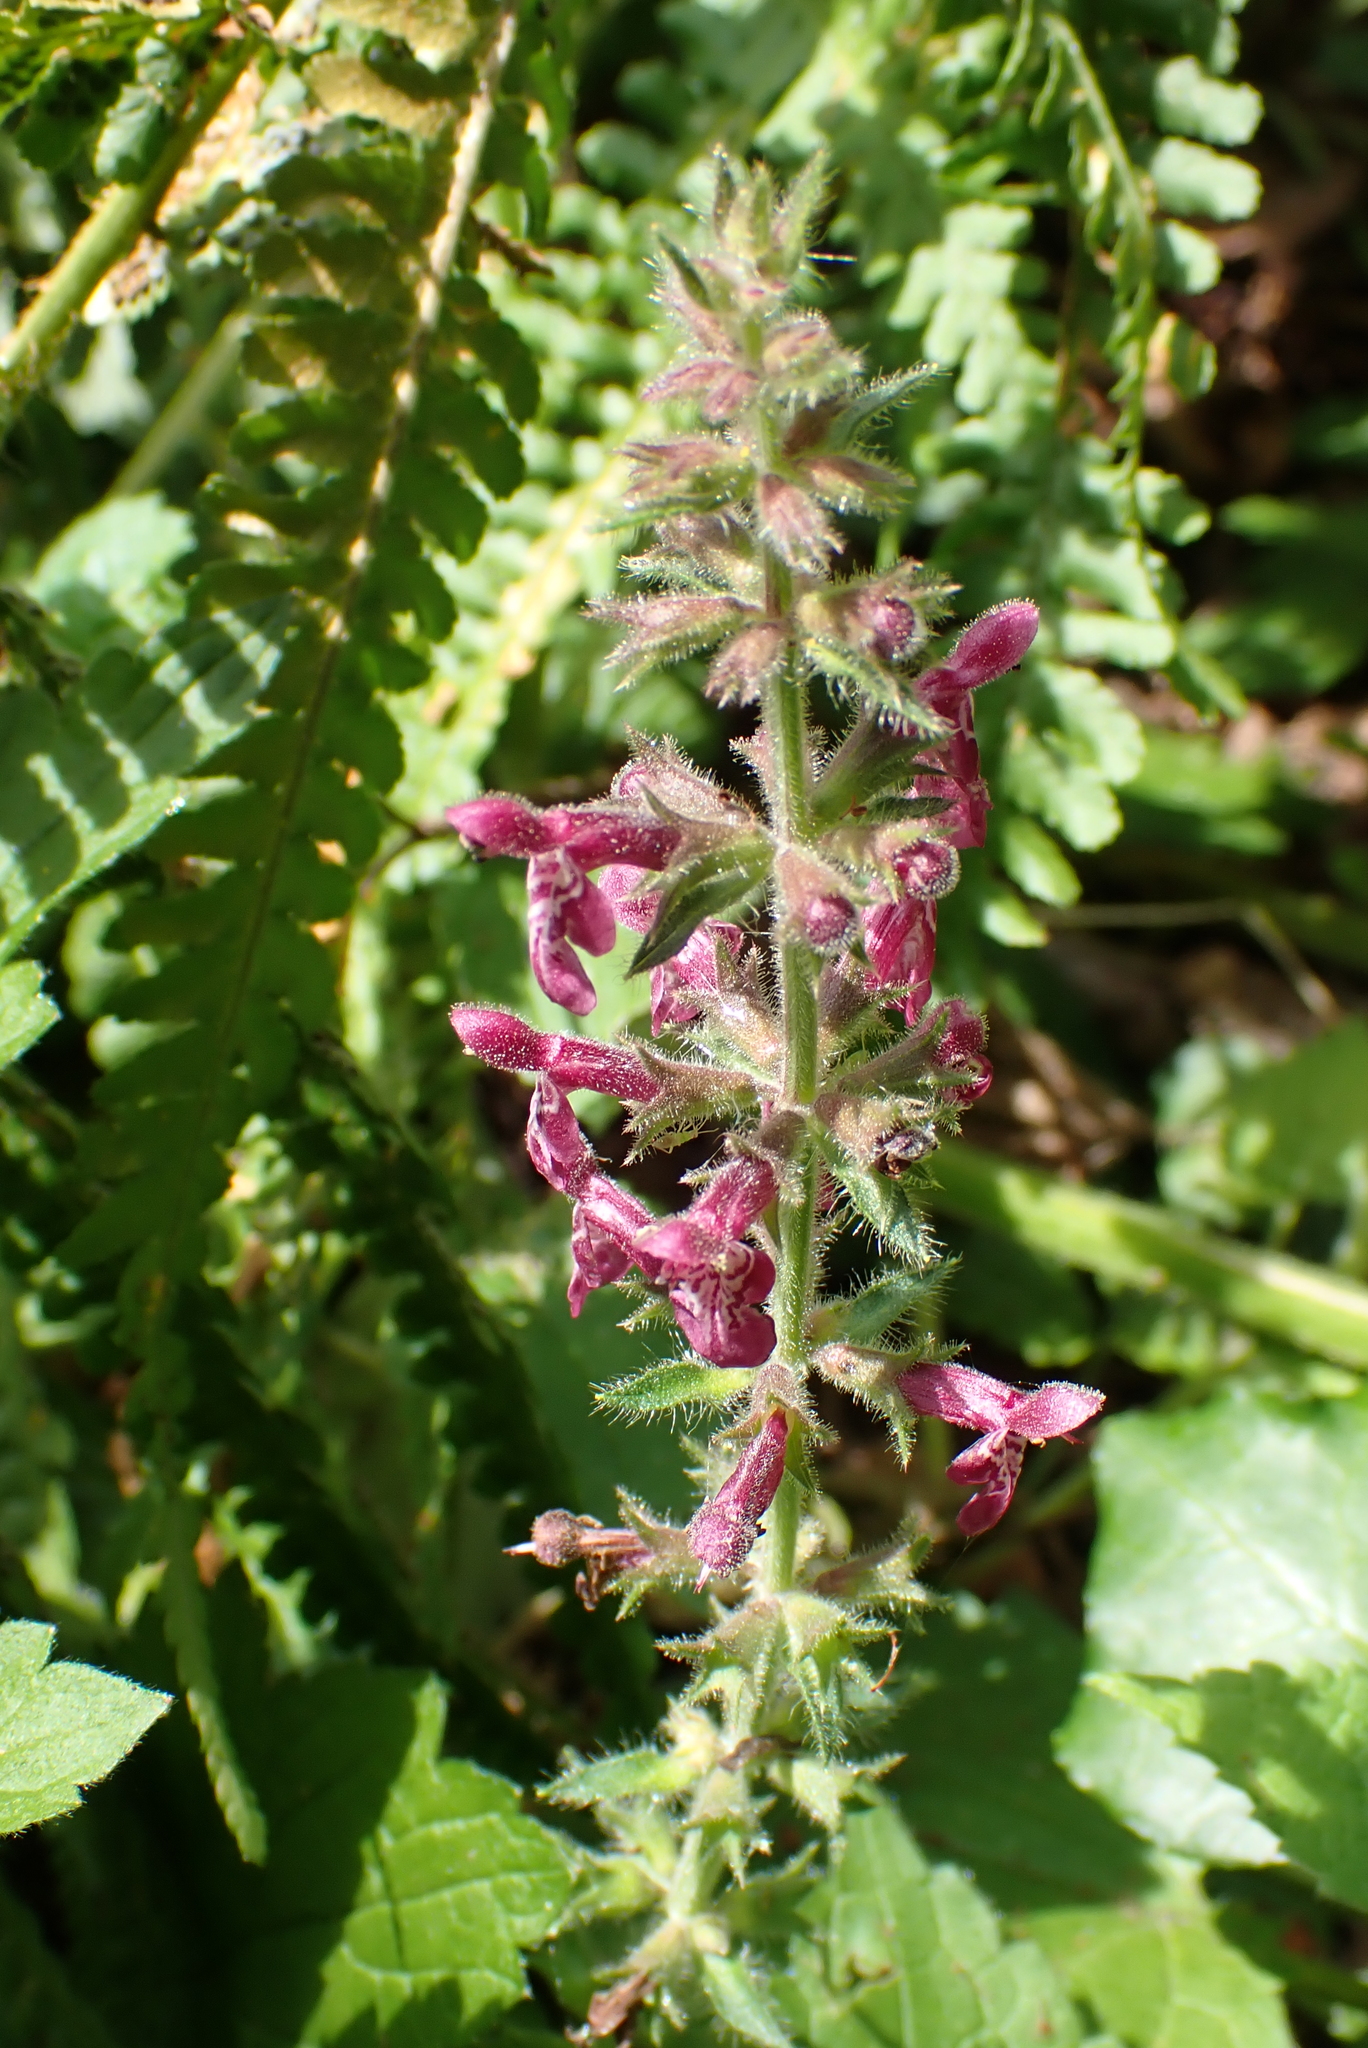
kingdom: Plantae
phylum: Tracheophyta
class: Magnoliopsida
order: Lamiales
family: Lamiaceae
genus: Stachys
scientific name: Stachys sylvatica
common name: Hedge woundwort
